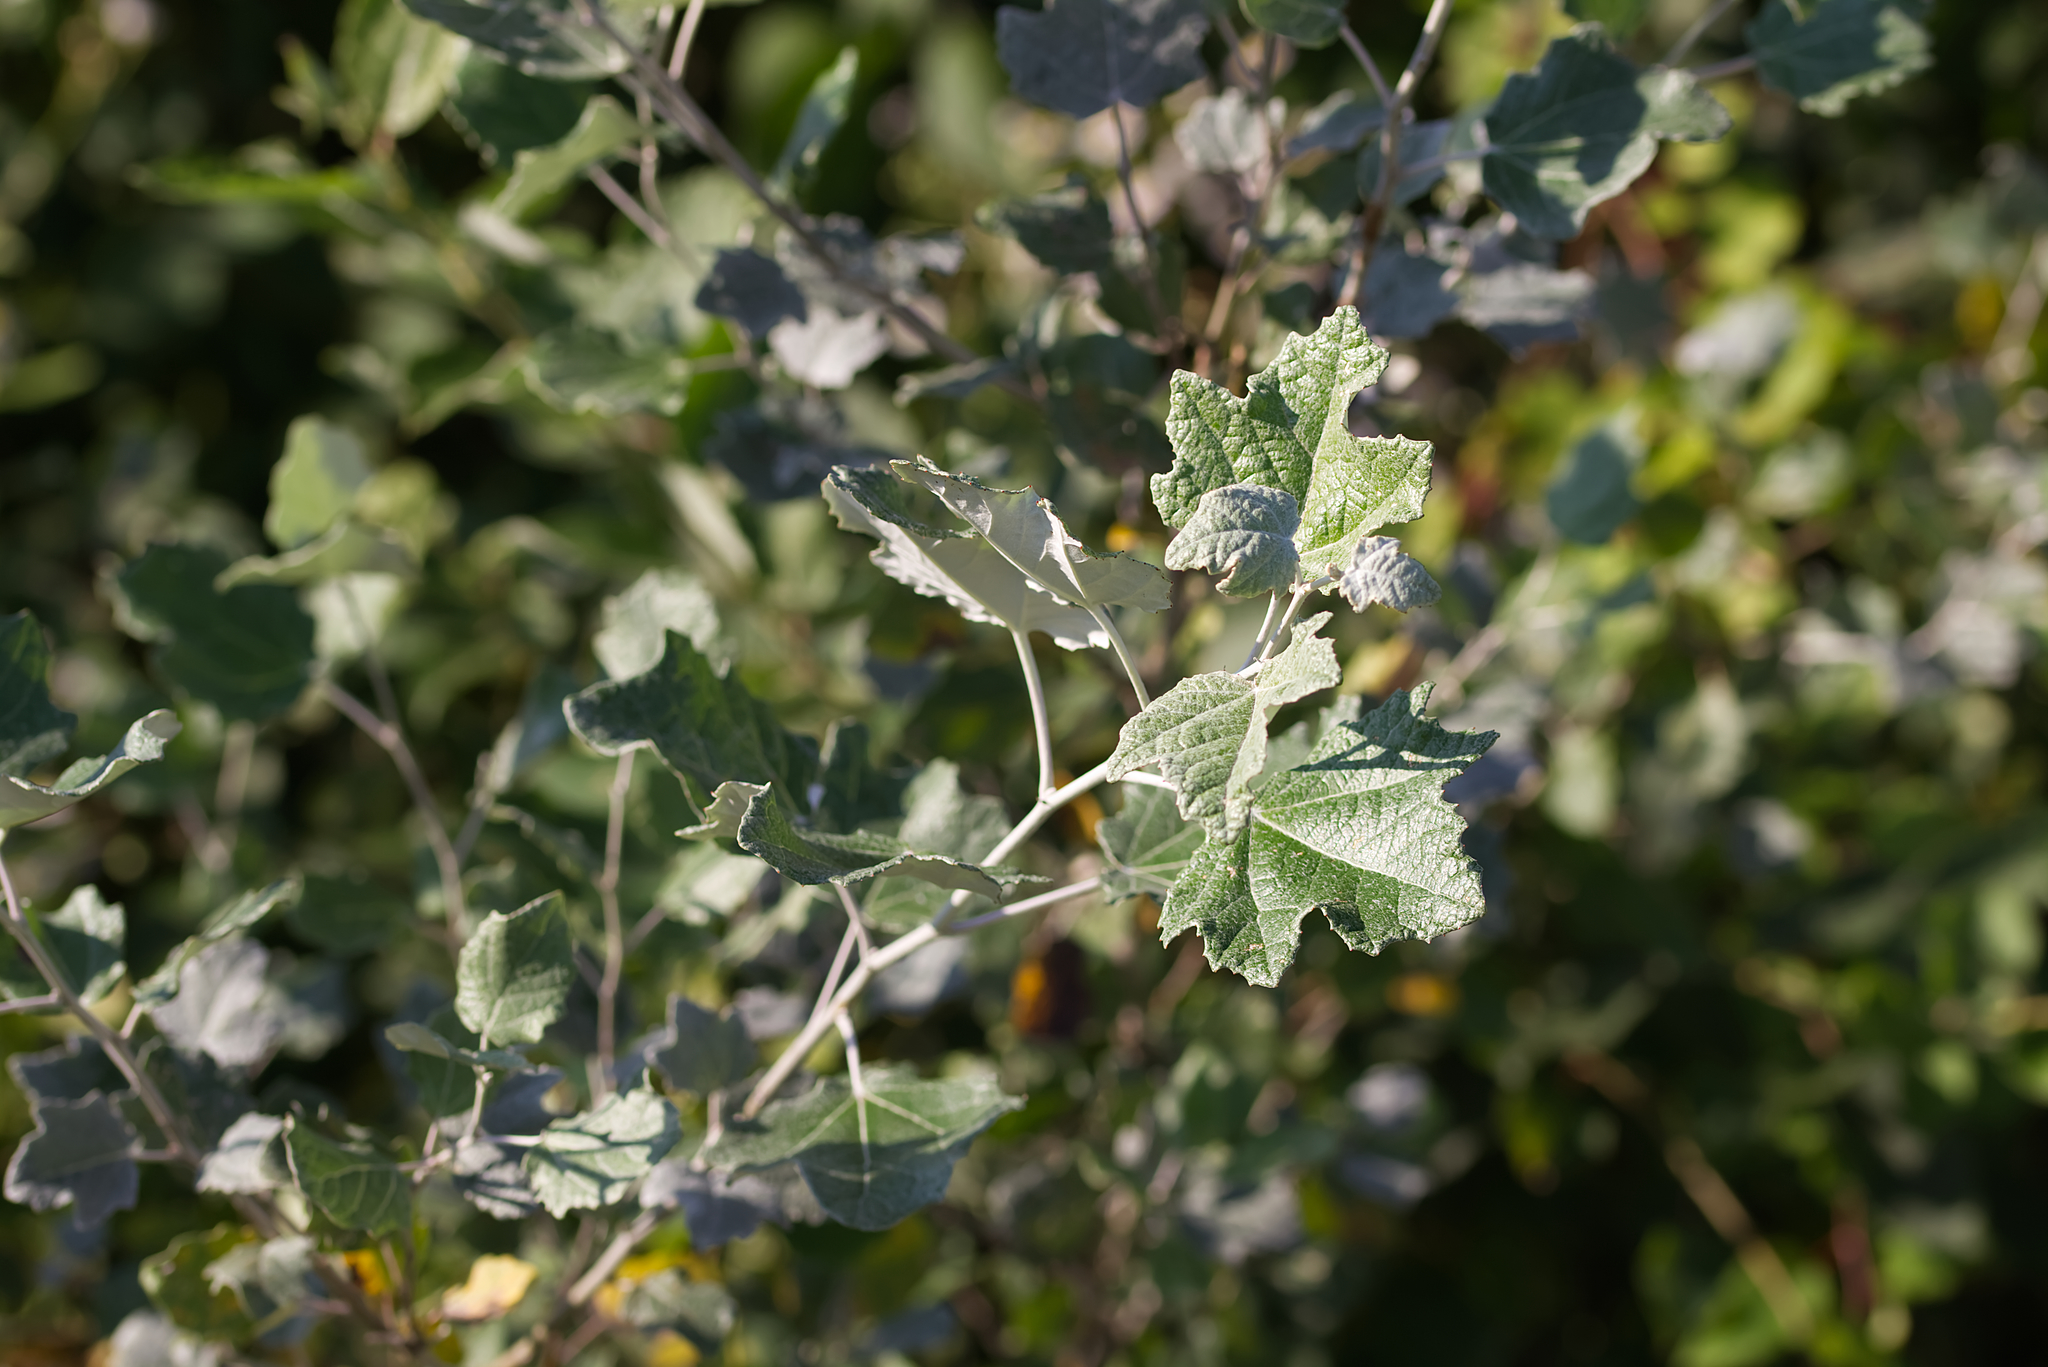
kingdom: Plantae
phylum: Tracheophyta
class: Magnoliopsida
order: Malpighiales
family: Salicaceae
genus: Populus
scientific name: Populus alba
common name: White poplar
